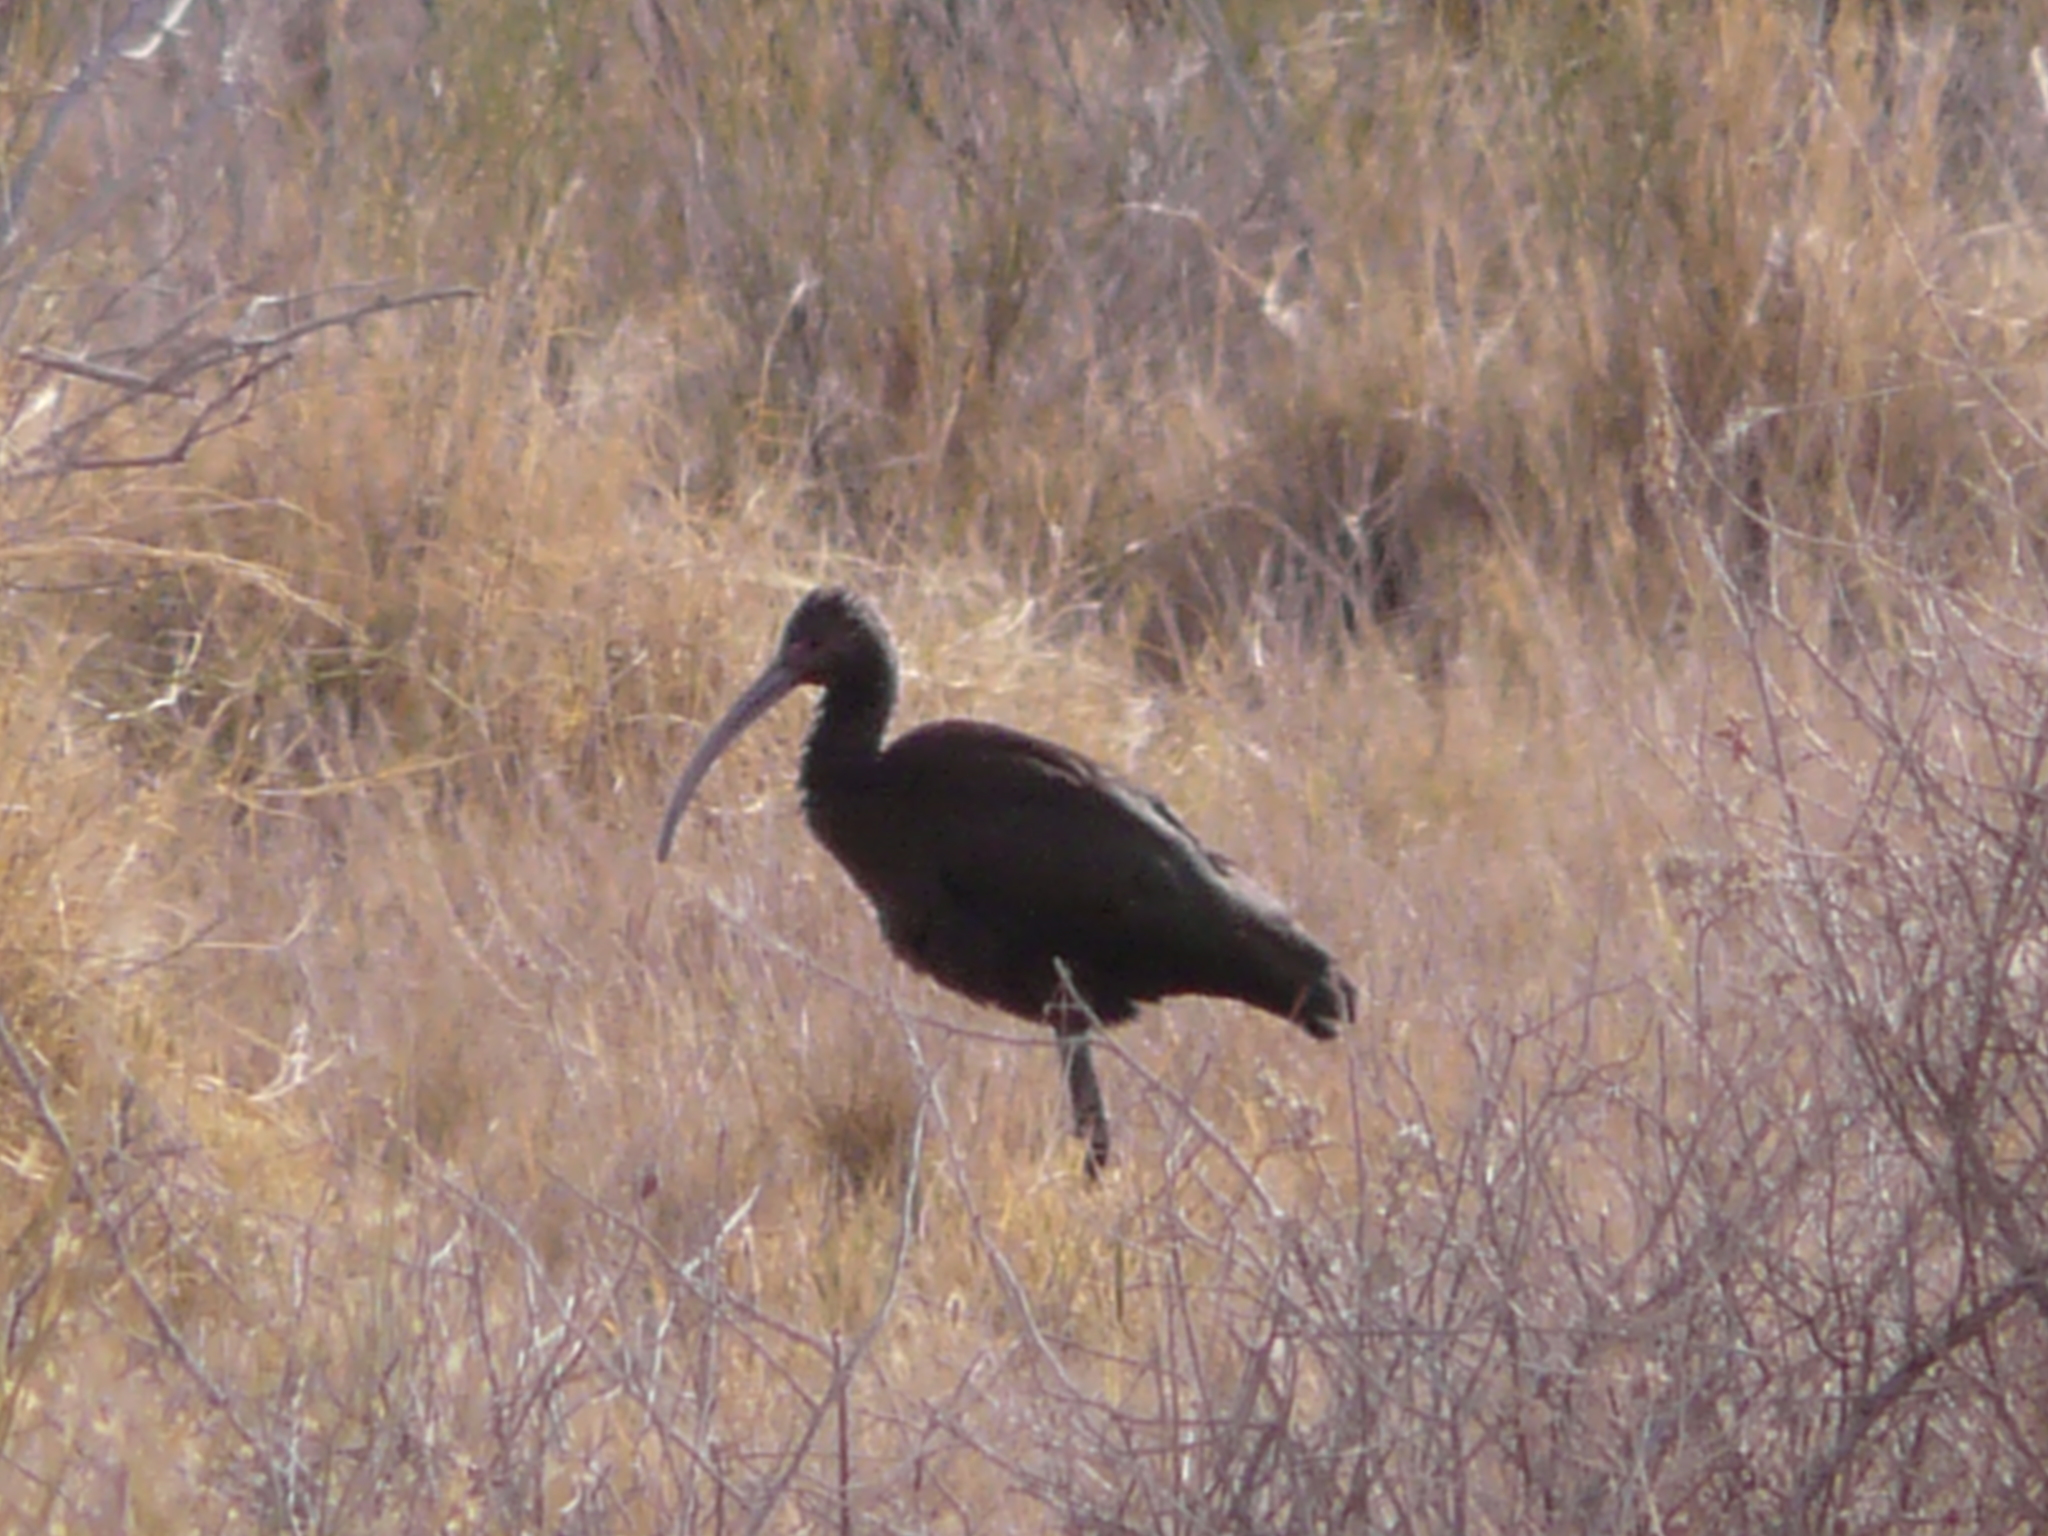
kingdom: Animalia
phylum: Chordata
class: Aves
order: Pelecaniformes
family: Threskiornithidae
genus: Plegadis
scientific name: Plegadis chihi
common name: White-faced ibis
